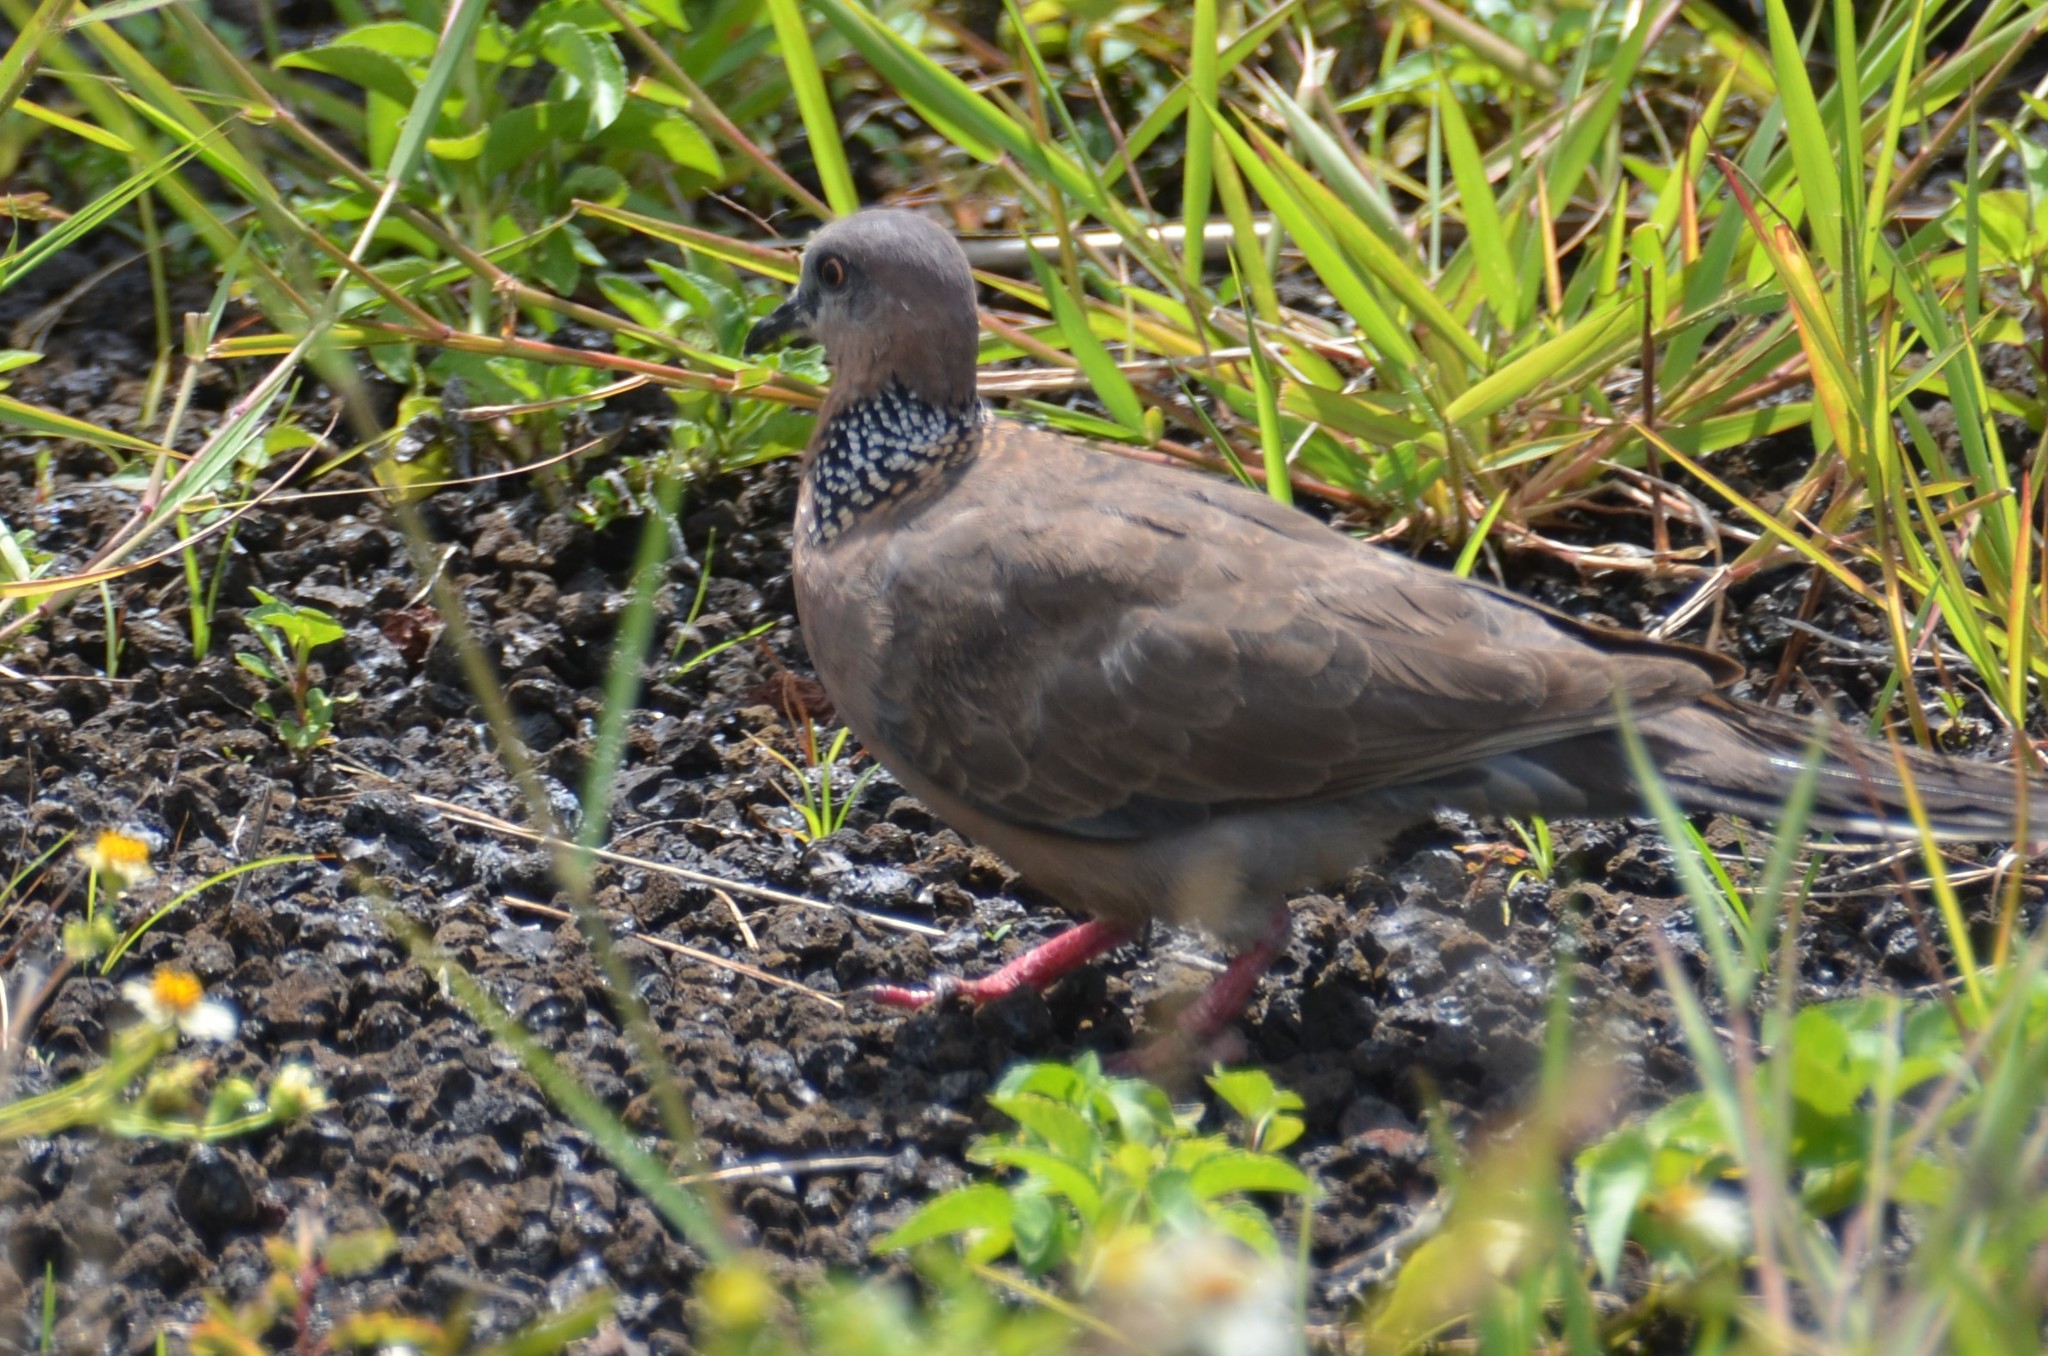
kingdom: Animalia
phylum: Chordata
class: Aves
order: Columbiformes
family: Columbidae
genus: Spilopelia
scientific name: Spilopelia chinensis
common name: Spotted dove
